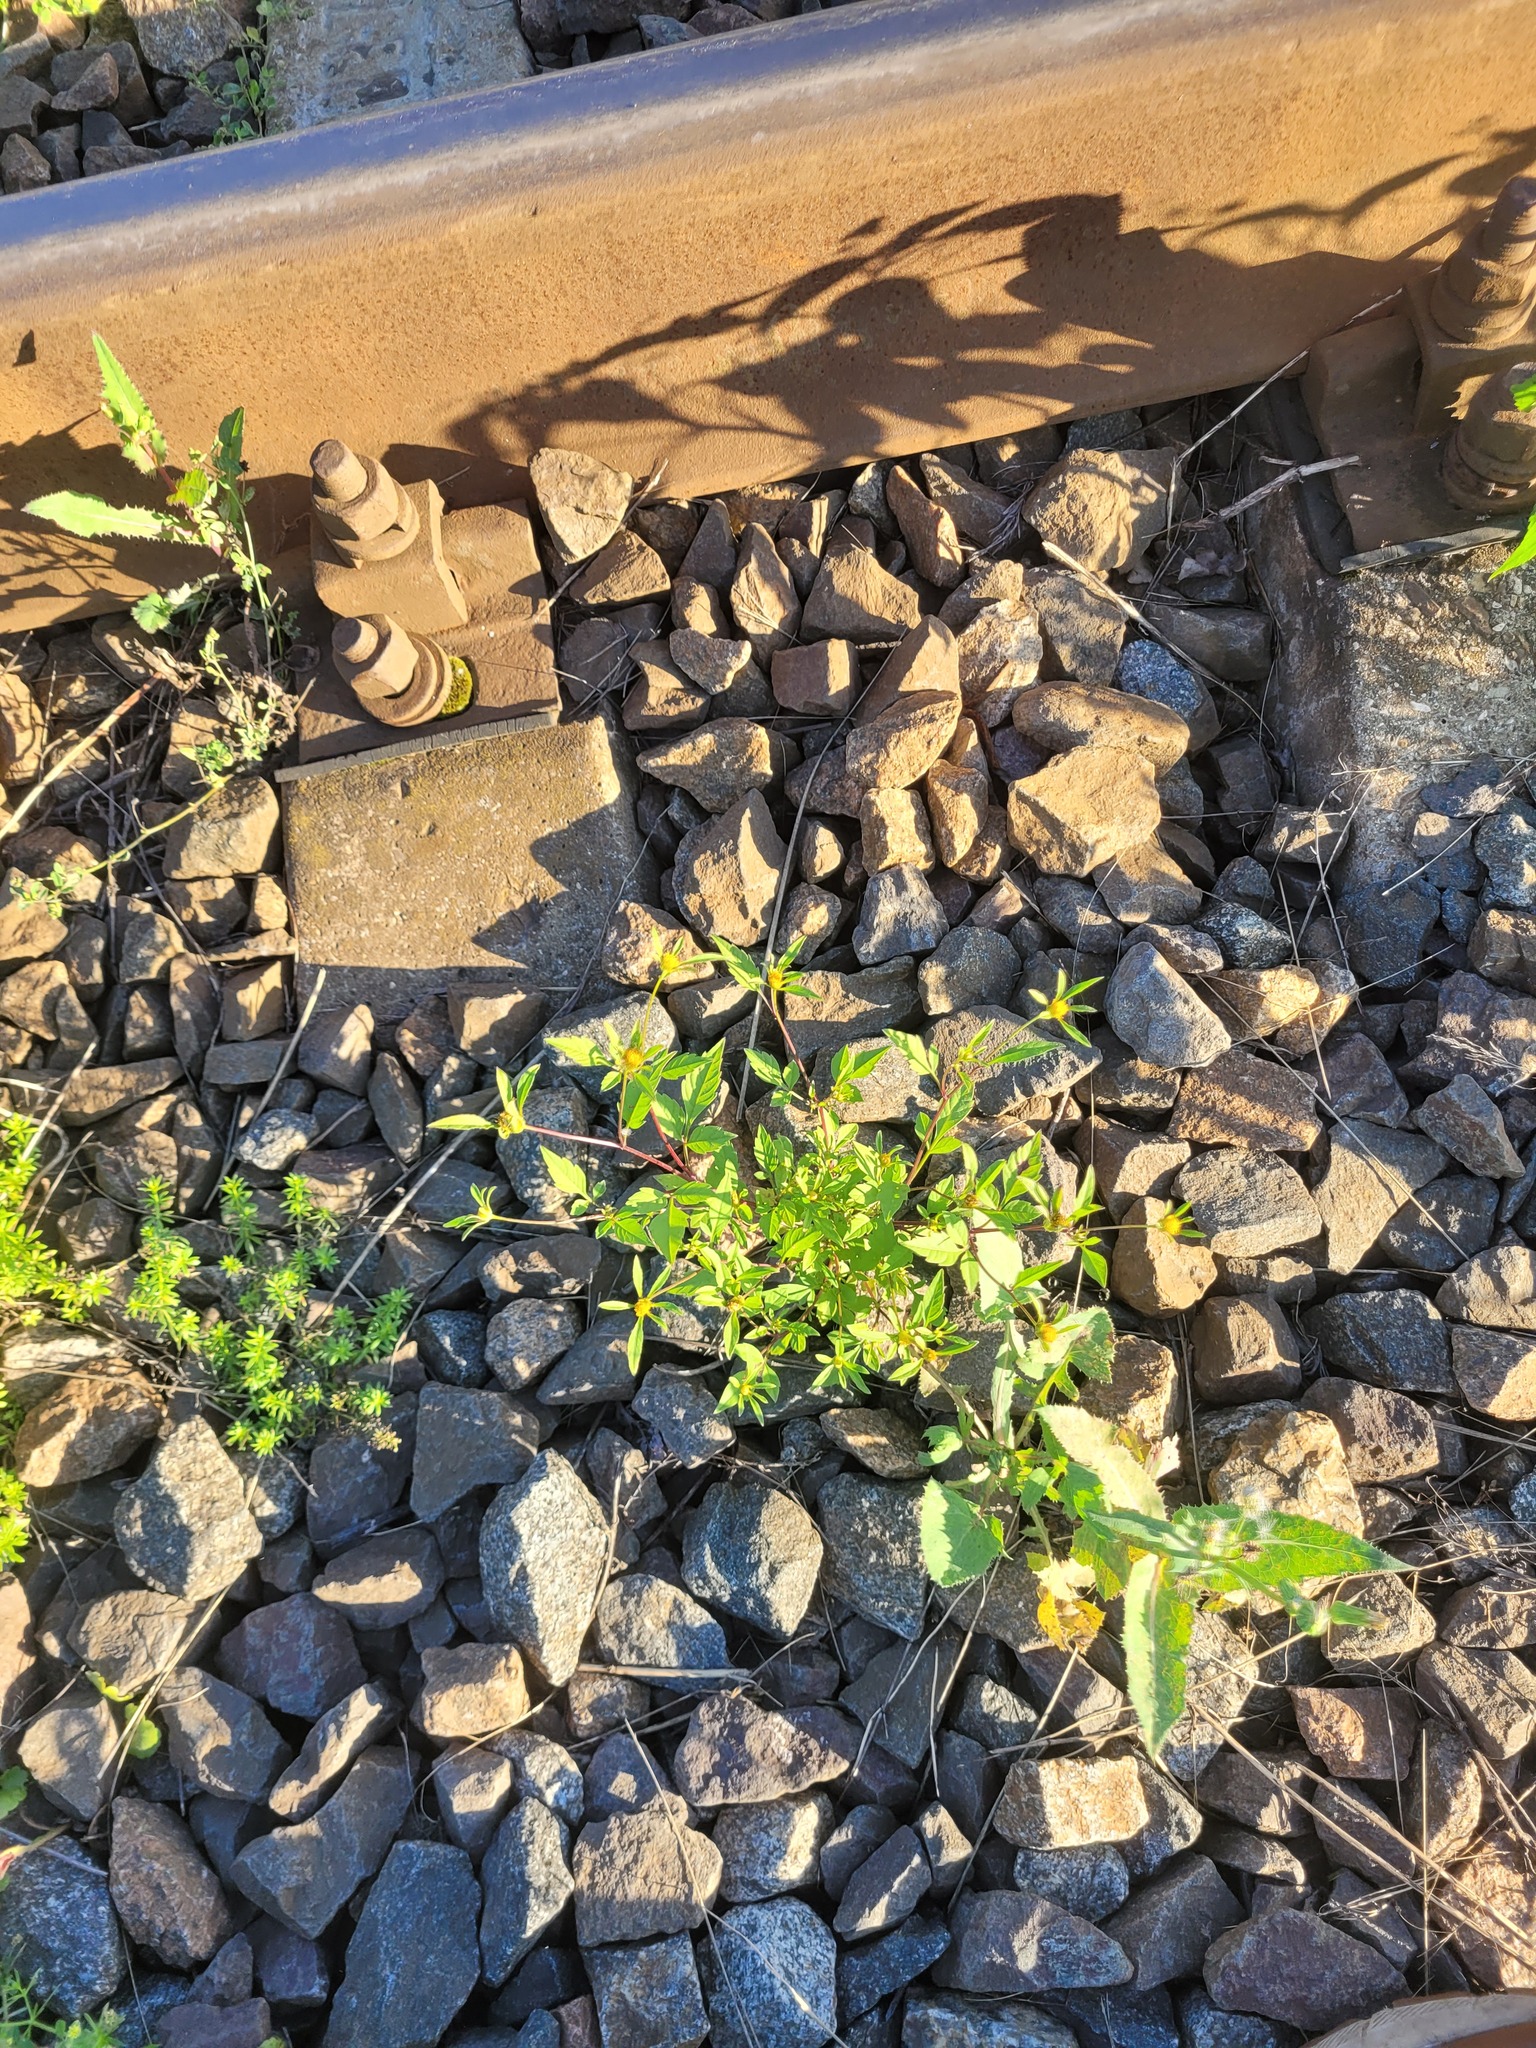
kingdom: Plantae
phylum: Tracheophyta
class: Magnoliopsida
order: Asterales
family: Asteraceae
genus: Bidens
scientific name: Bidens frondosa
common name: Beggarticks
